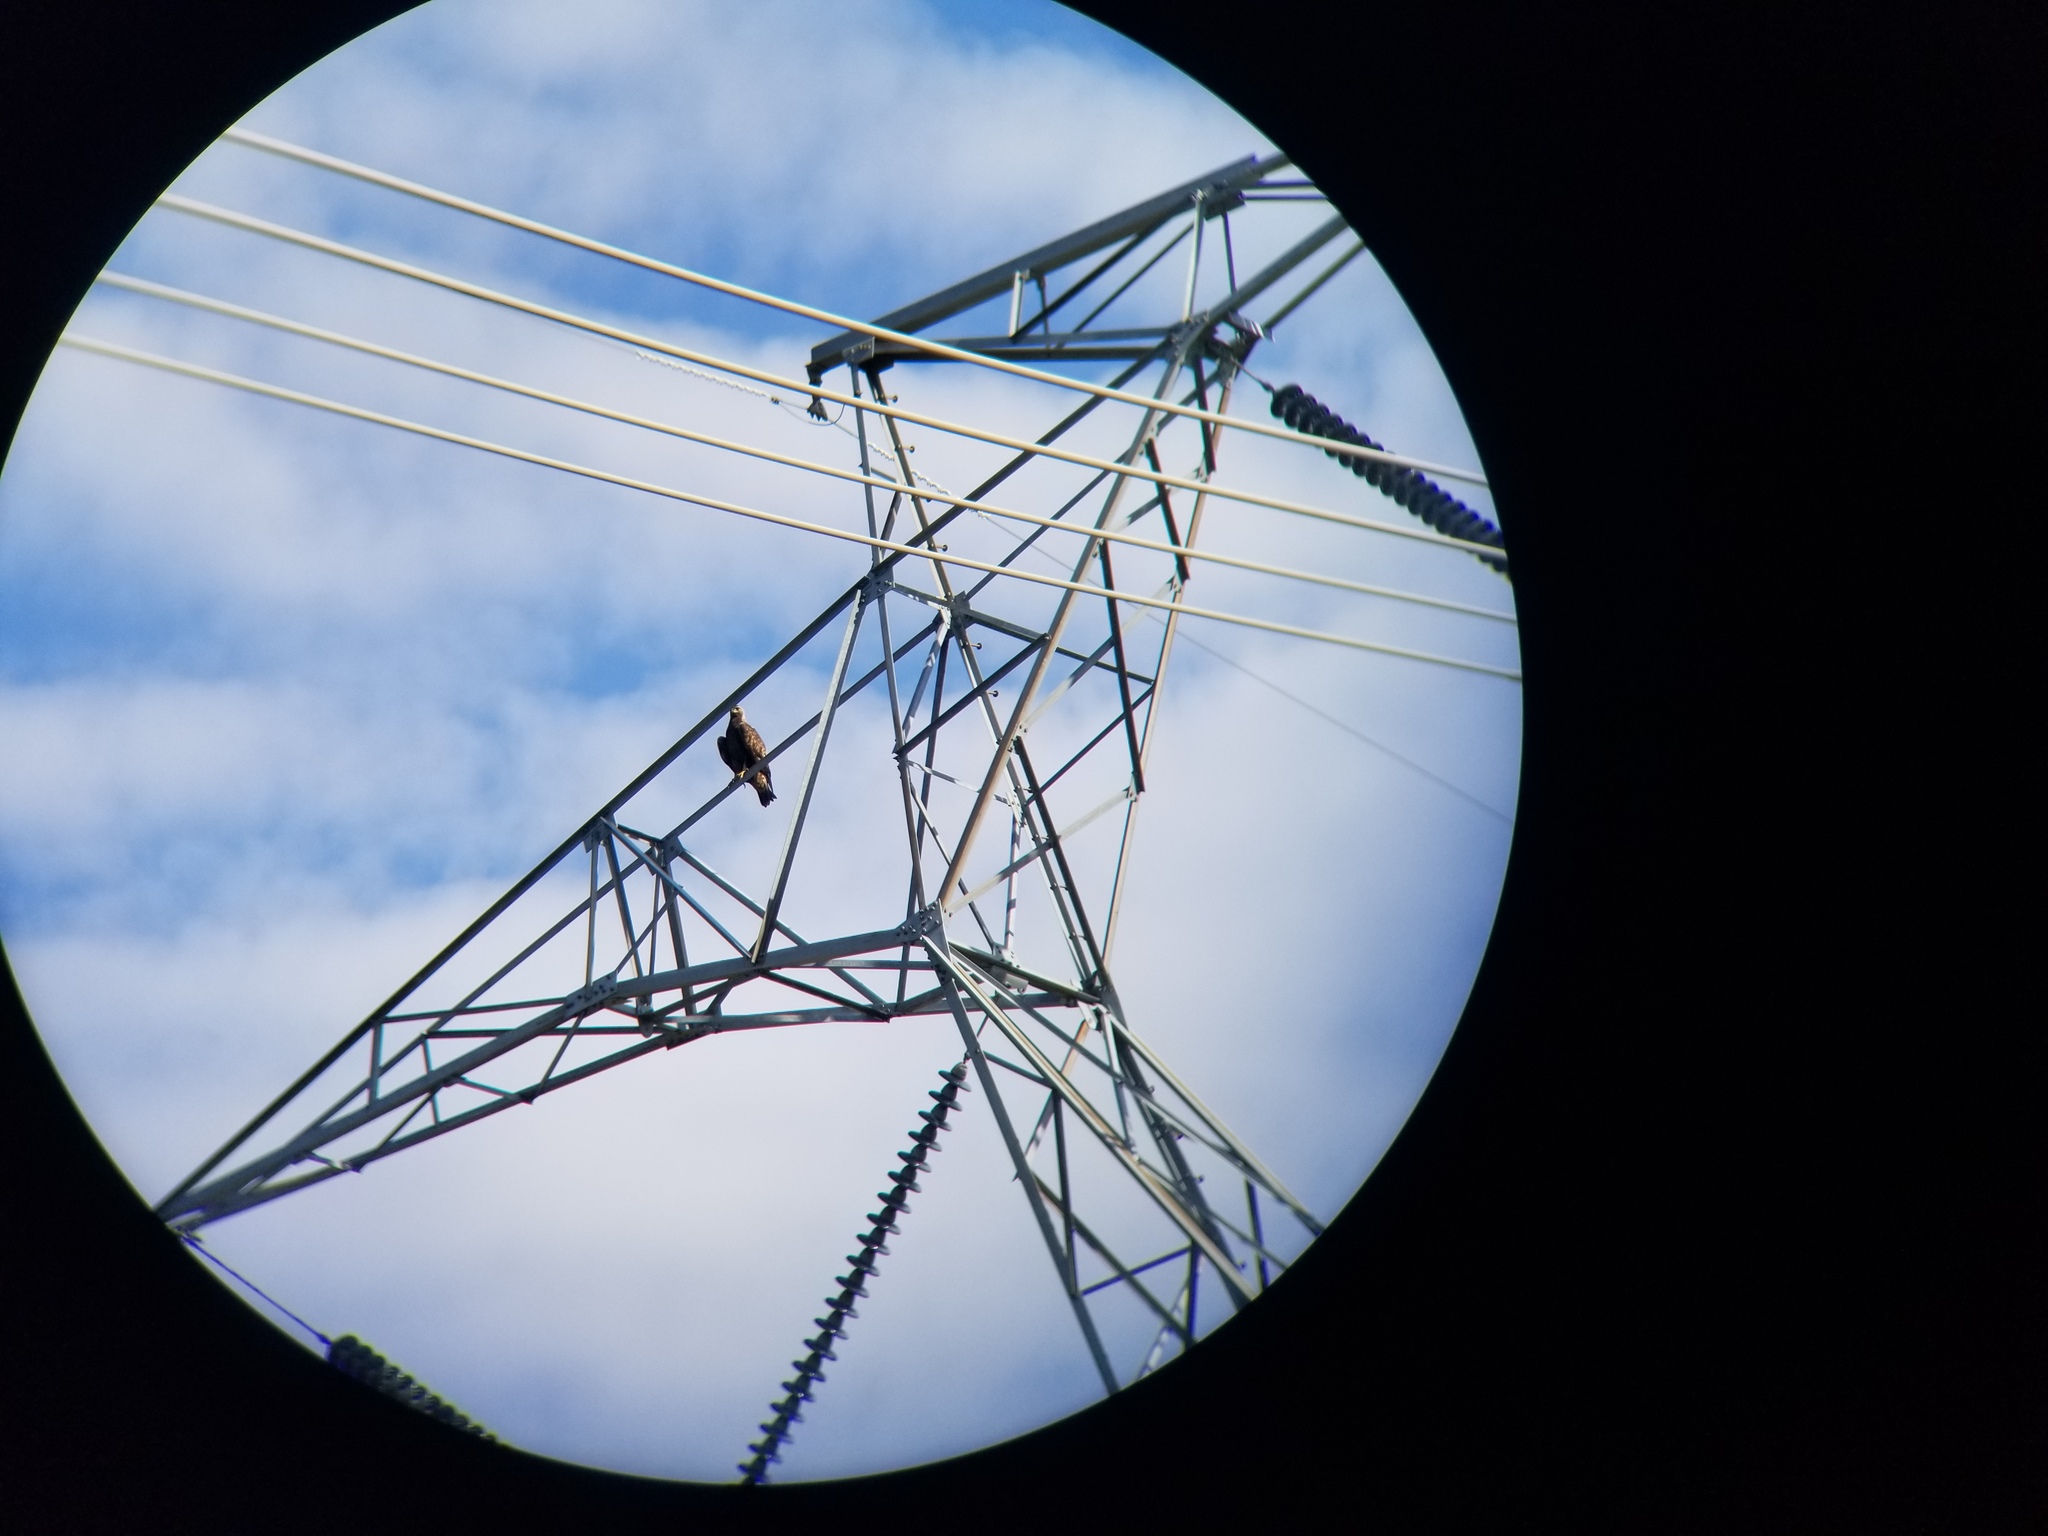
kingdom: Animalia
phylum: Chordata
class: Aves
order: Accipitriformes
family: Accipitridae
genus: Aquila
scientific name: Aquila chrysaetos
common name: Golden eagle
